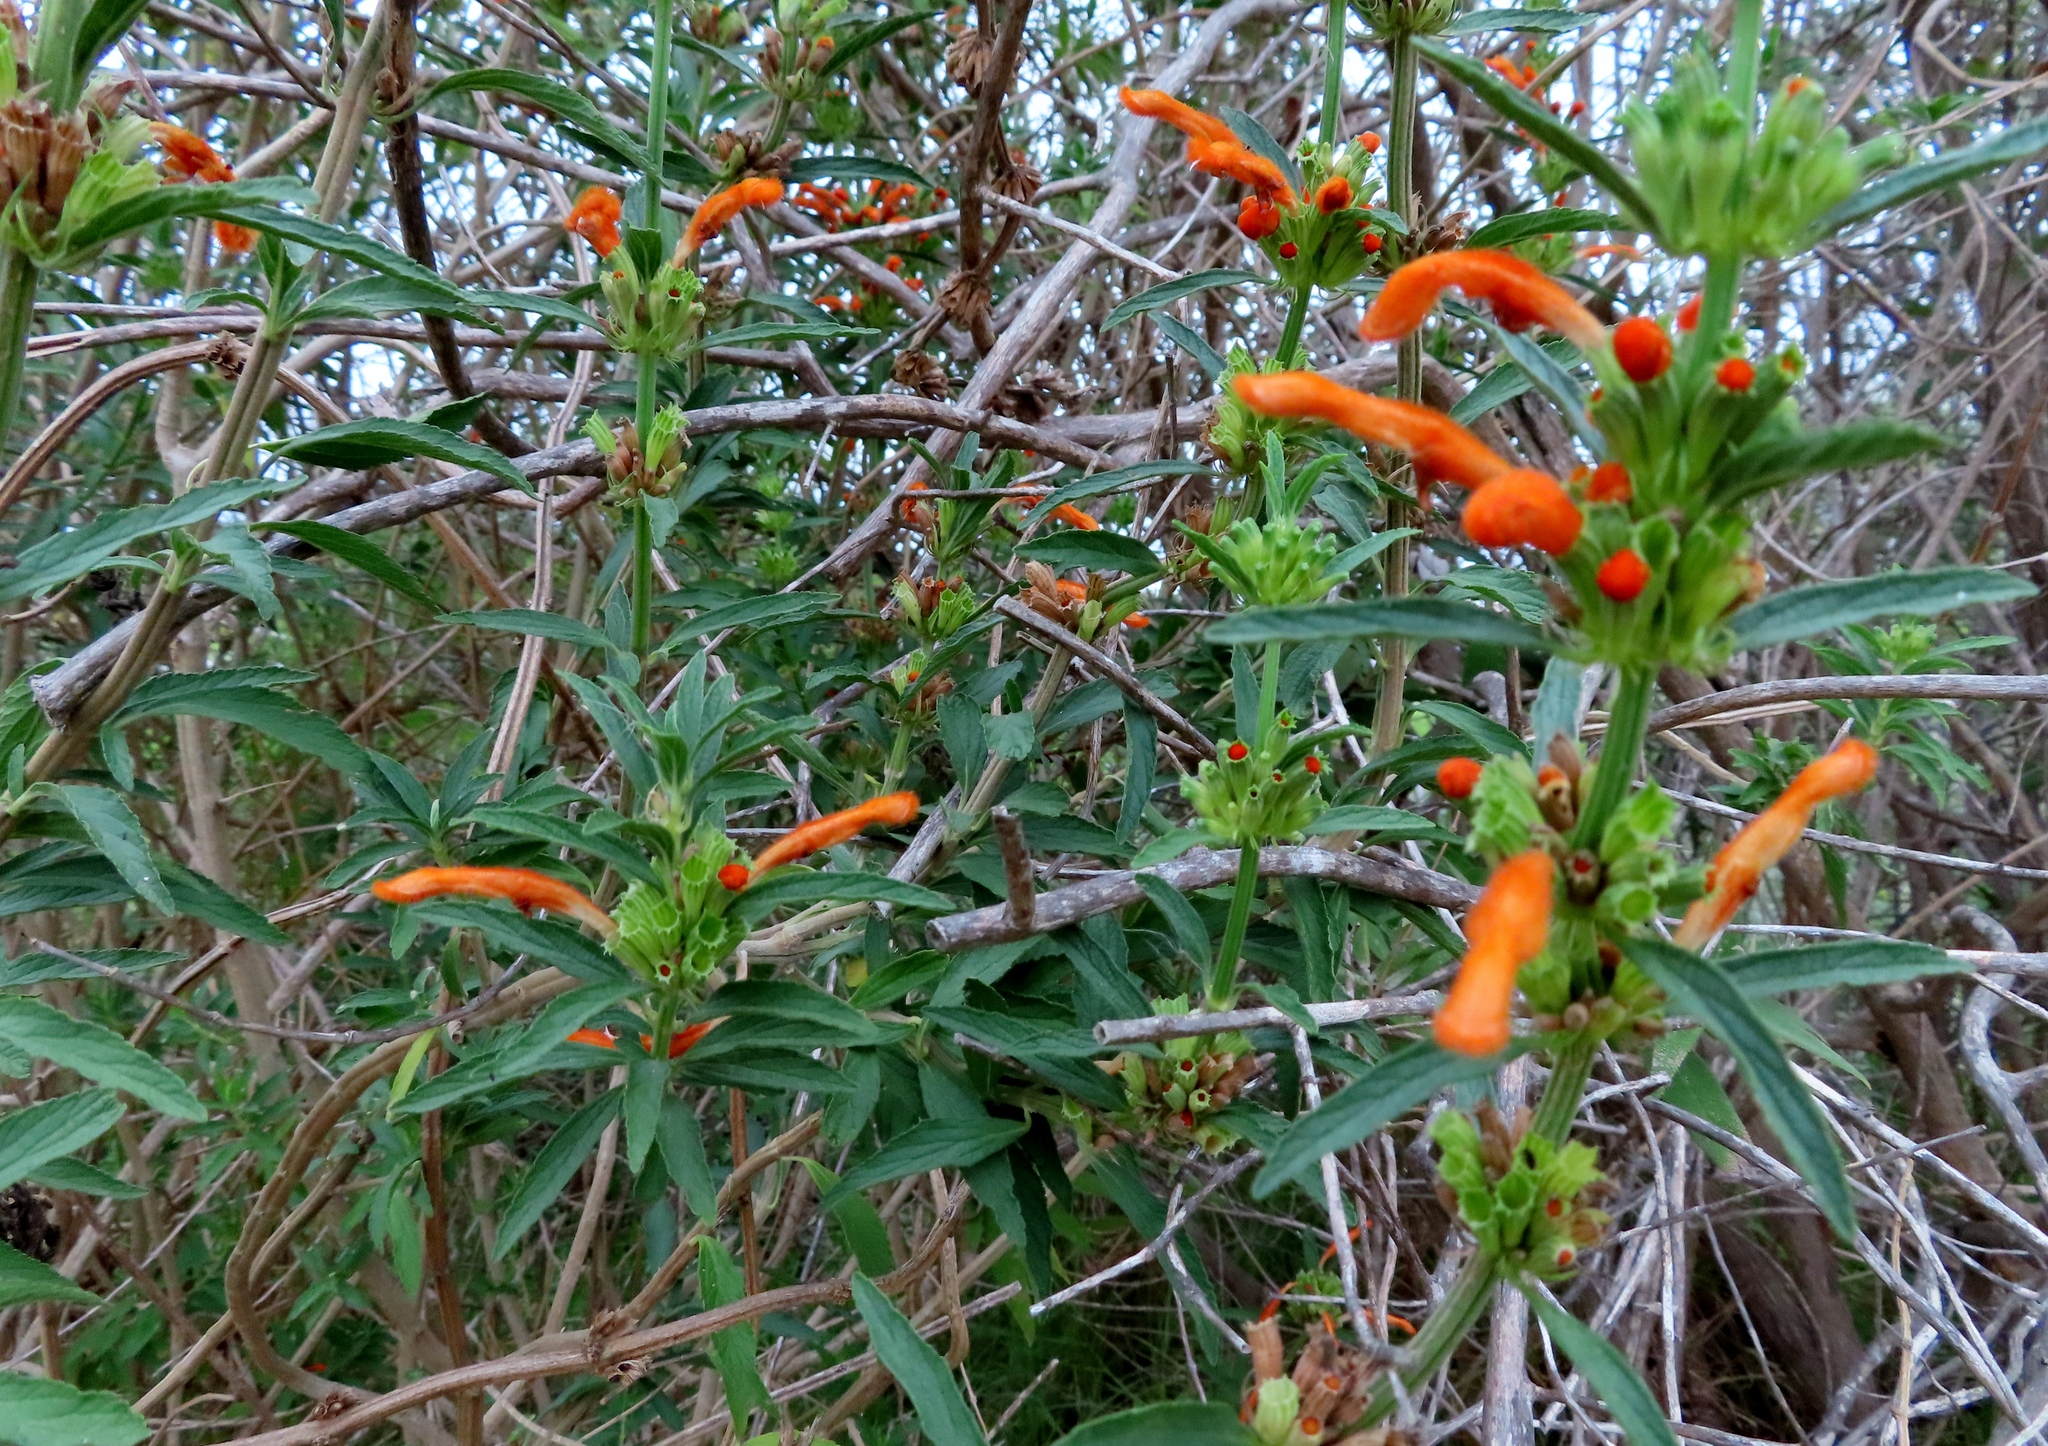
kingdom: Plantae
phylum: Tracheophyta
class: Magnoliopsida
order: Lamiales
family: Lamiaceae
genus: Leonotis
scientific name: Leonotis leonurus
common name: Lion's ear
